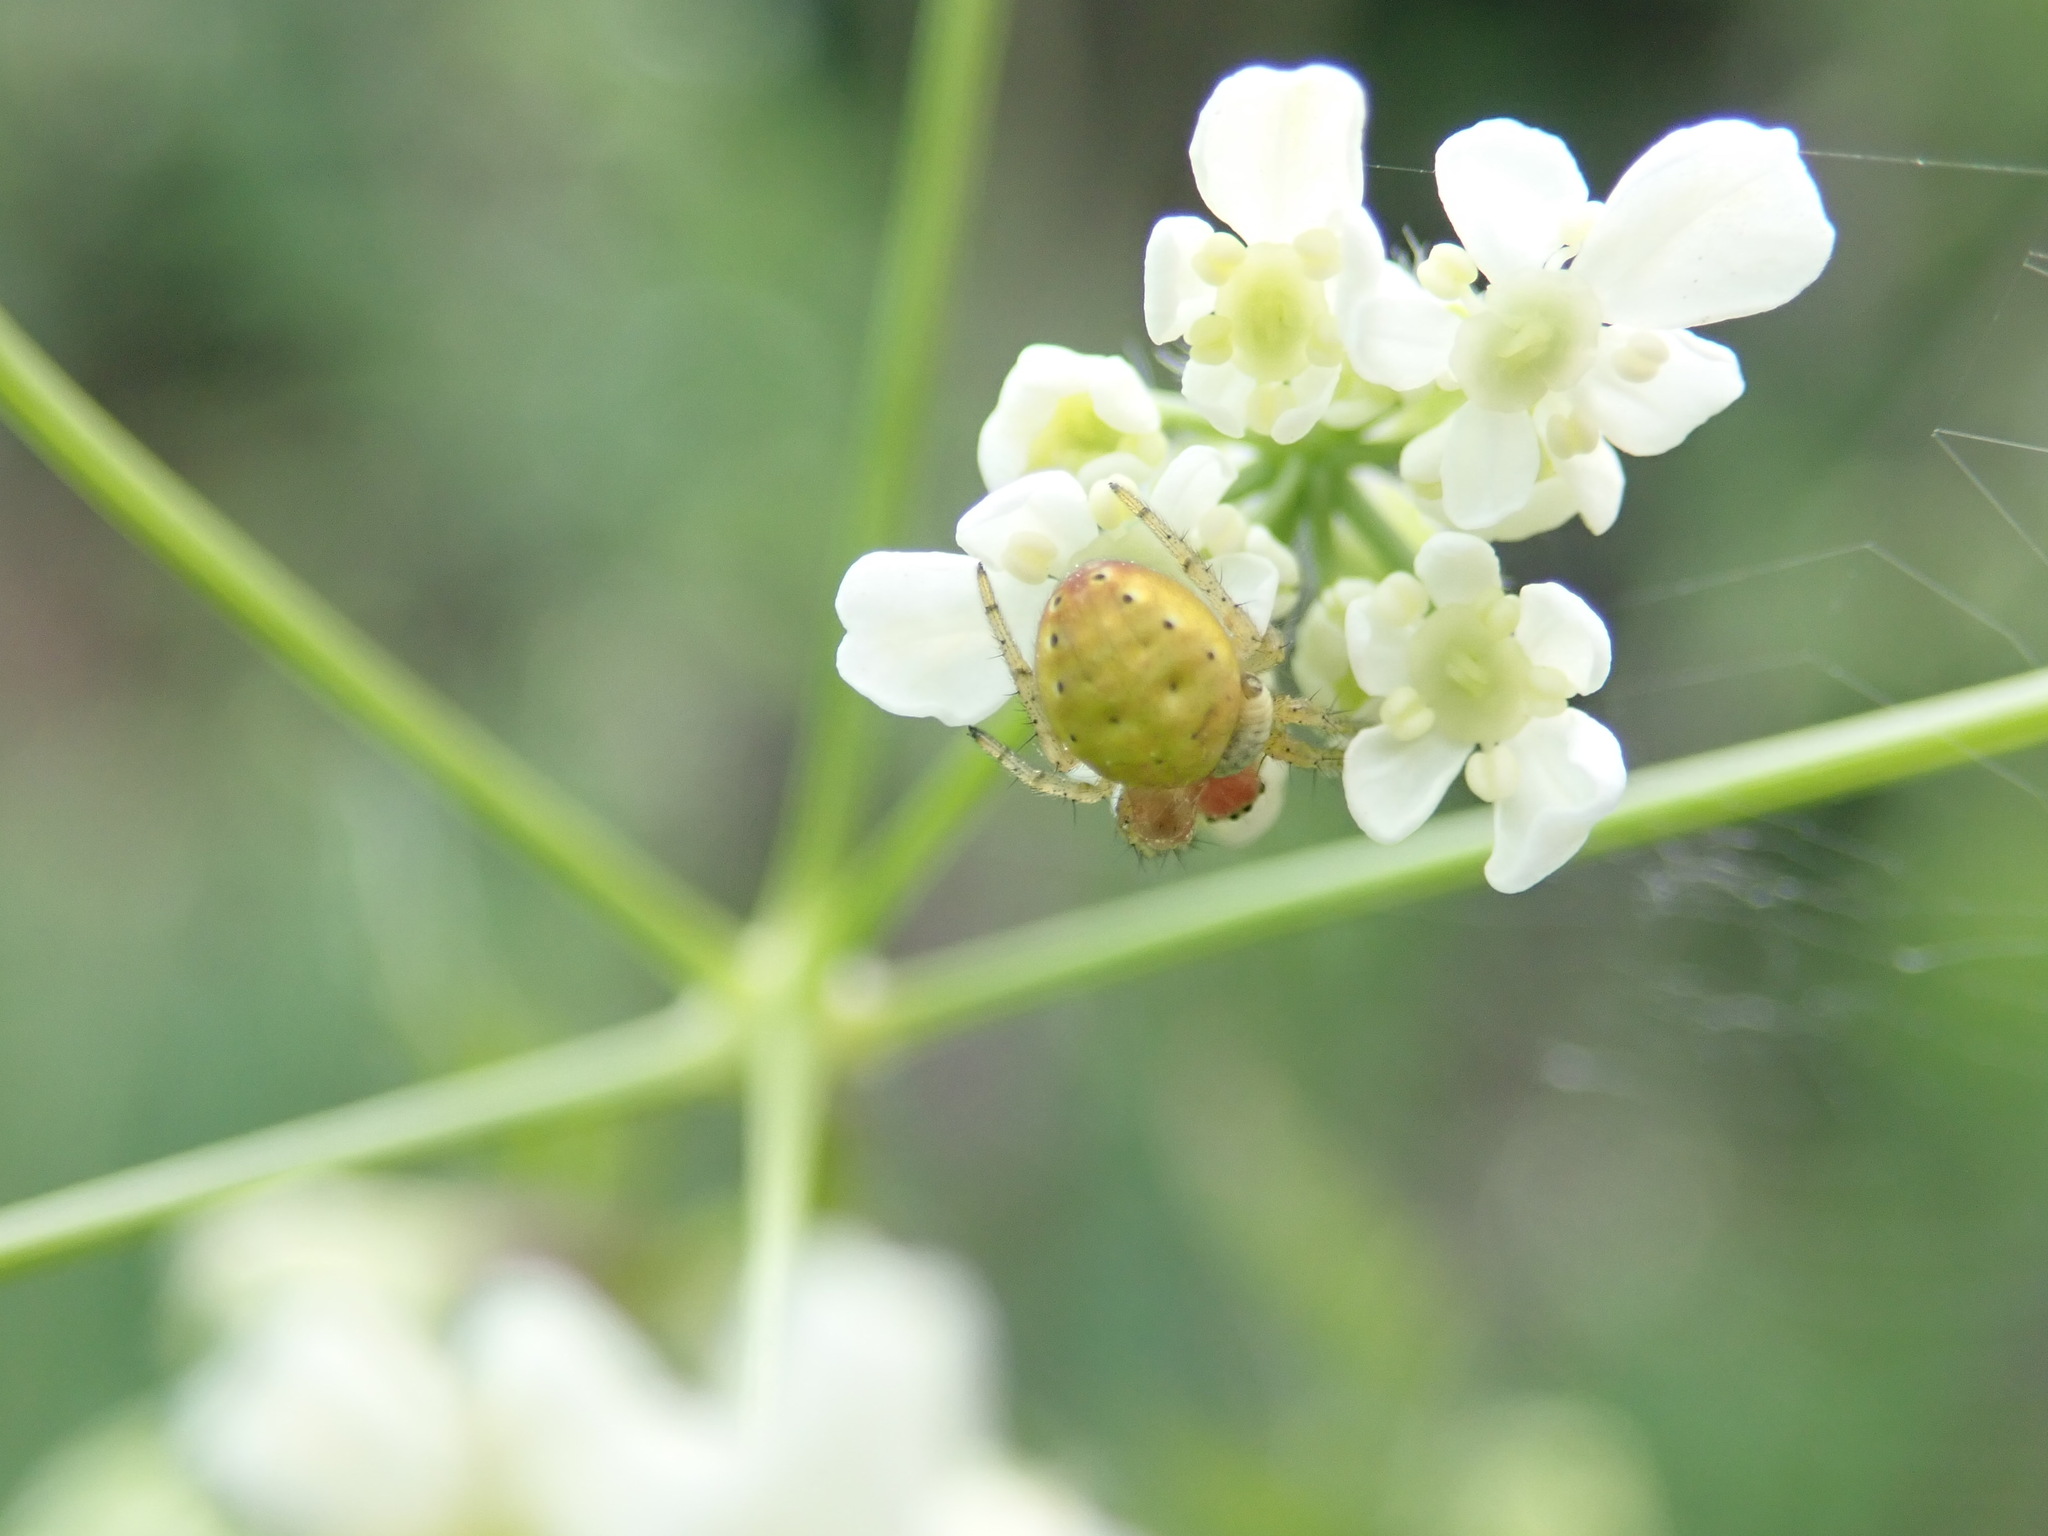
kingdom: Animalia
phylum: Arthropoda
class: Arachnida
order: Araneae
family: Araneidae
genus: Araniella
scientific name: Araniella
